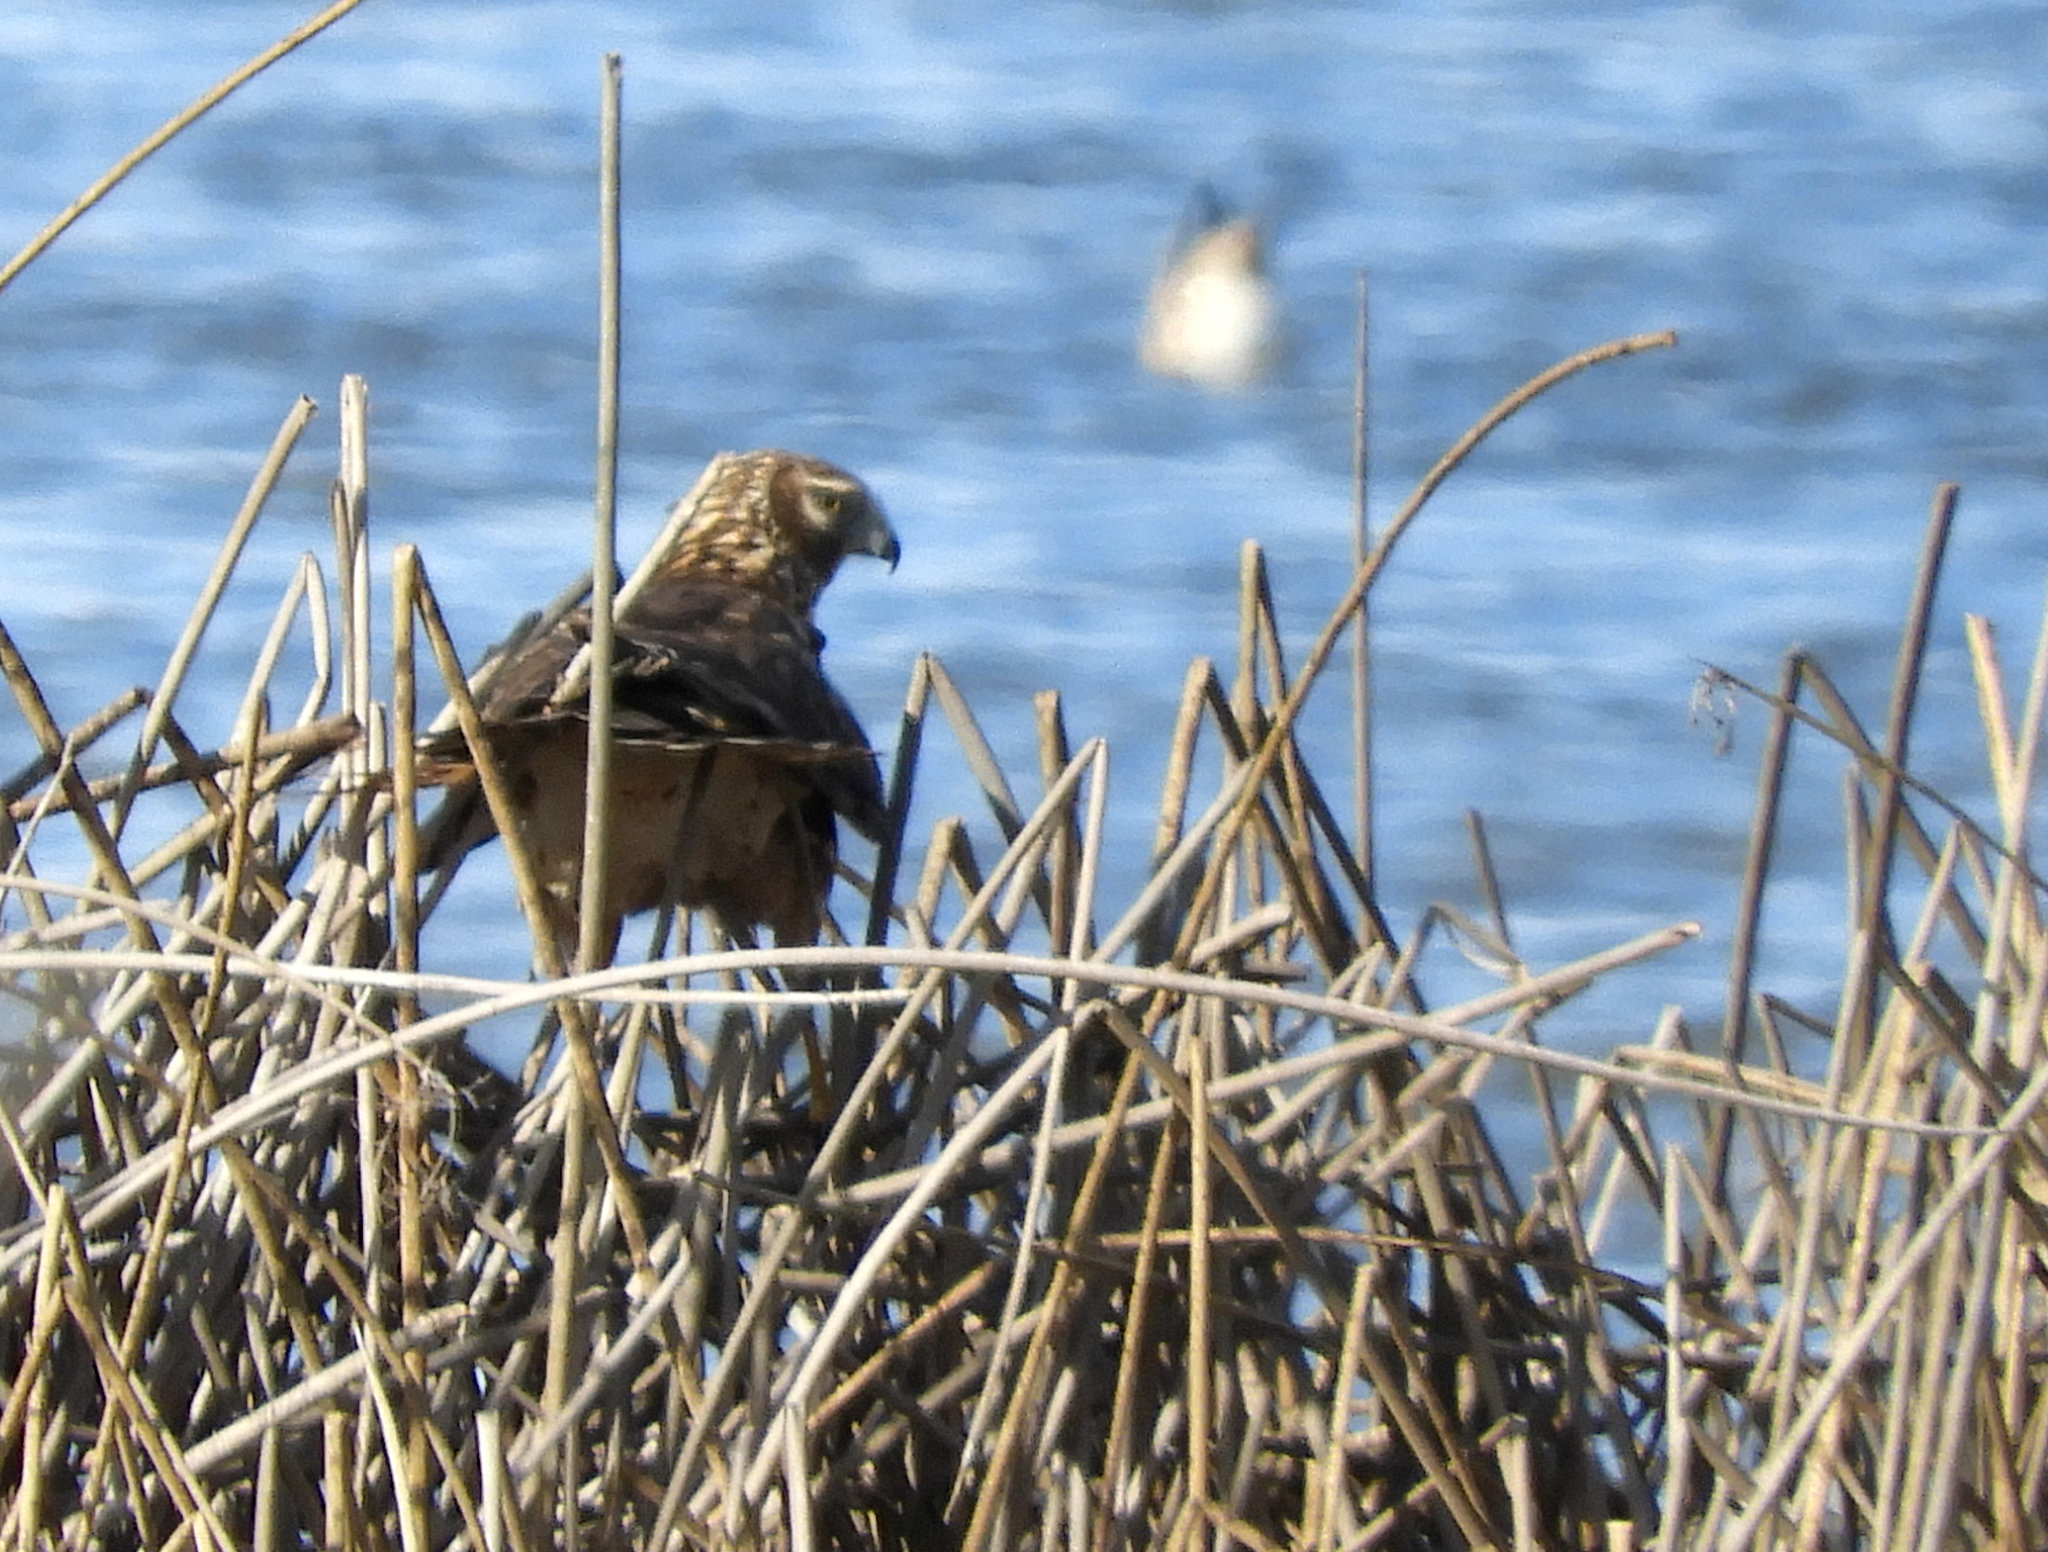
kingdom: Animalia
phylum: Chordata
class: Aves
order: Accipitriformes
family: Accipitridae
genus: Circus
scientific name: Circus cyaneus
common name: Hen harrier
